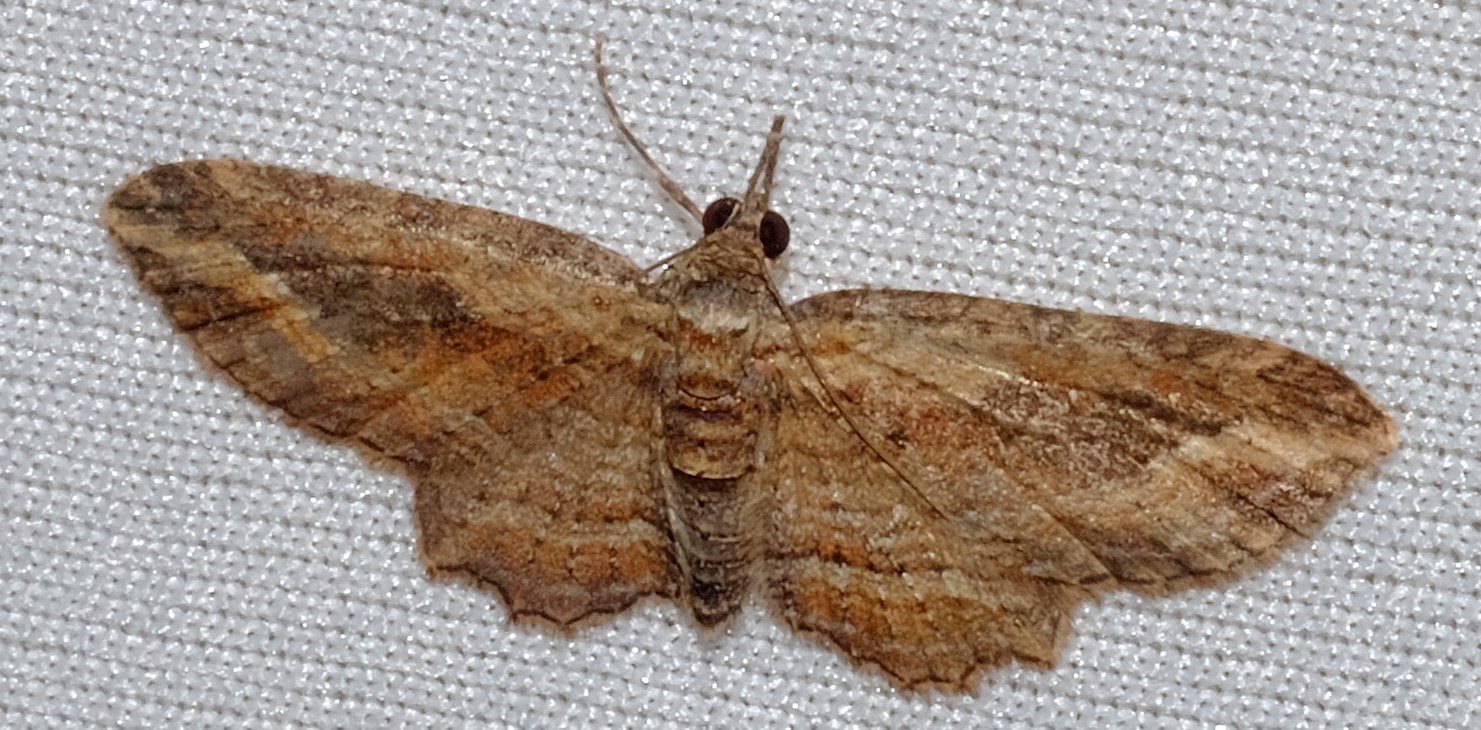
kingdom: Animalia
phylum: Arthropoda
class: Insecta
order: Lepidoptera
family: Geometridae
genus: Chloroclystis
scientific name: Chloroclystis filata
